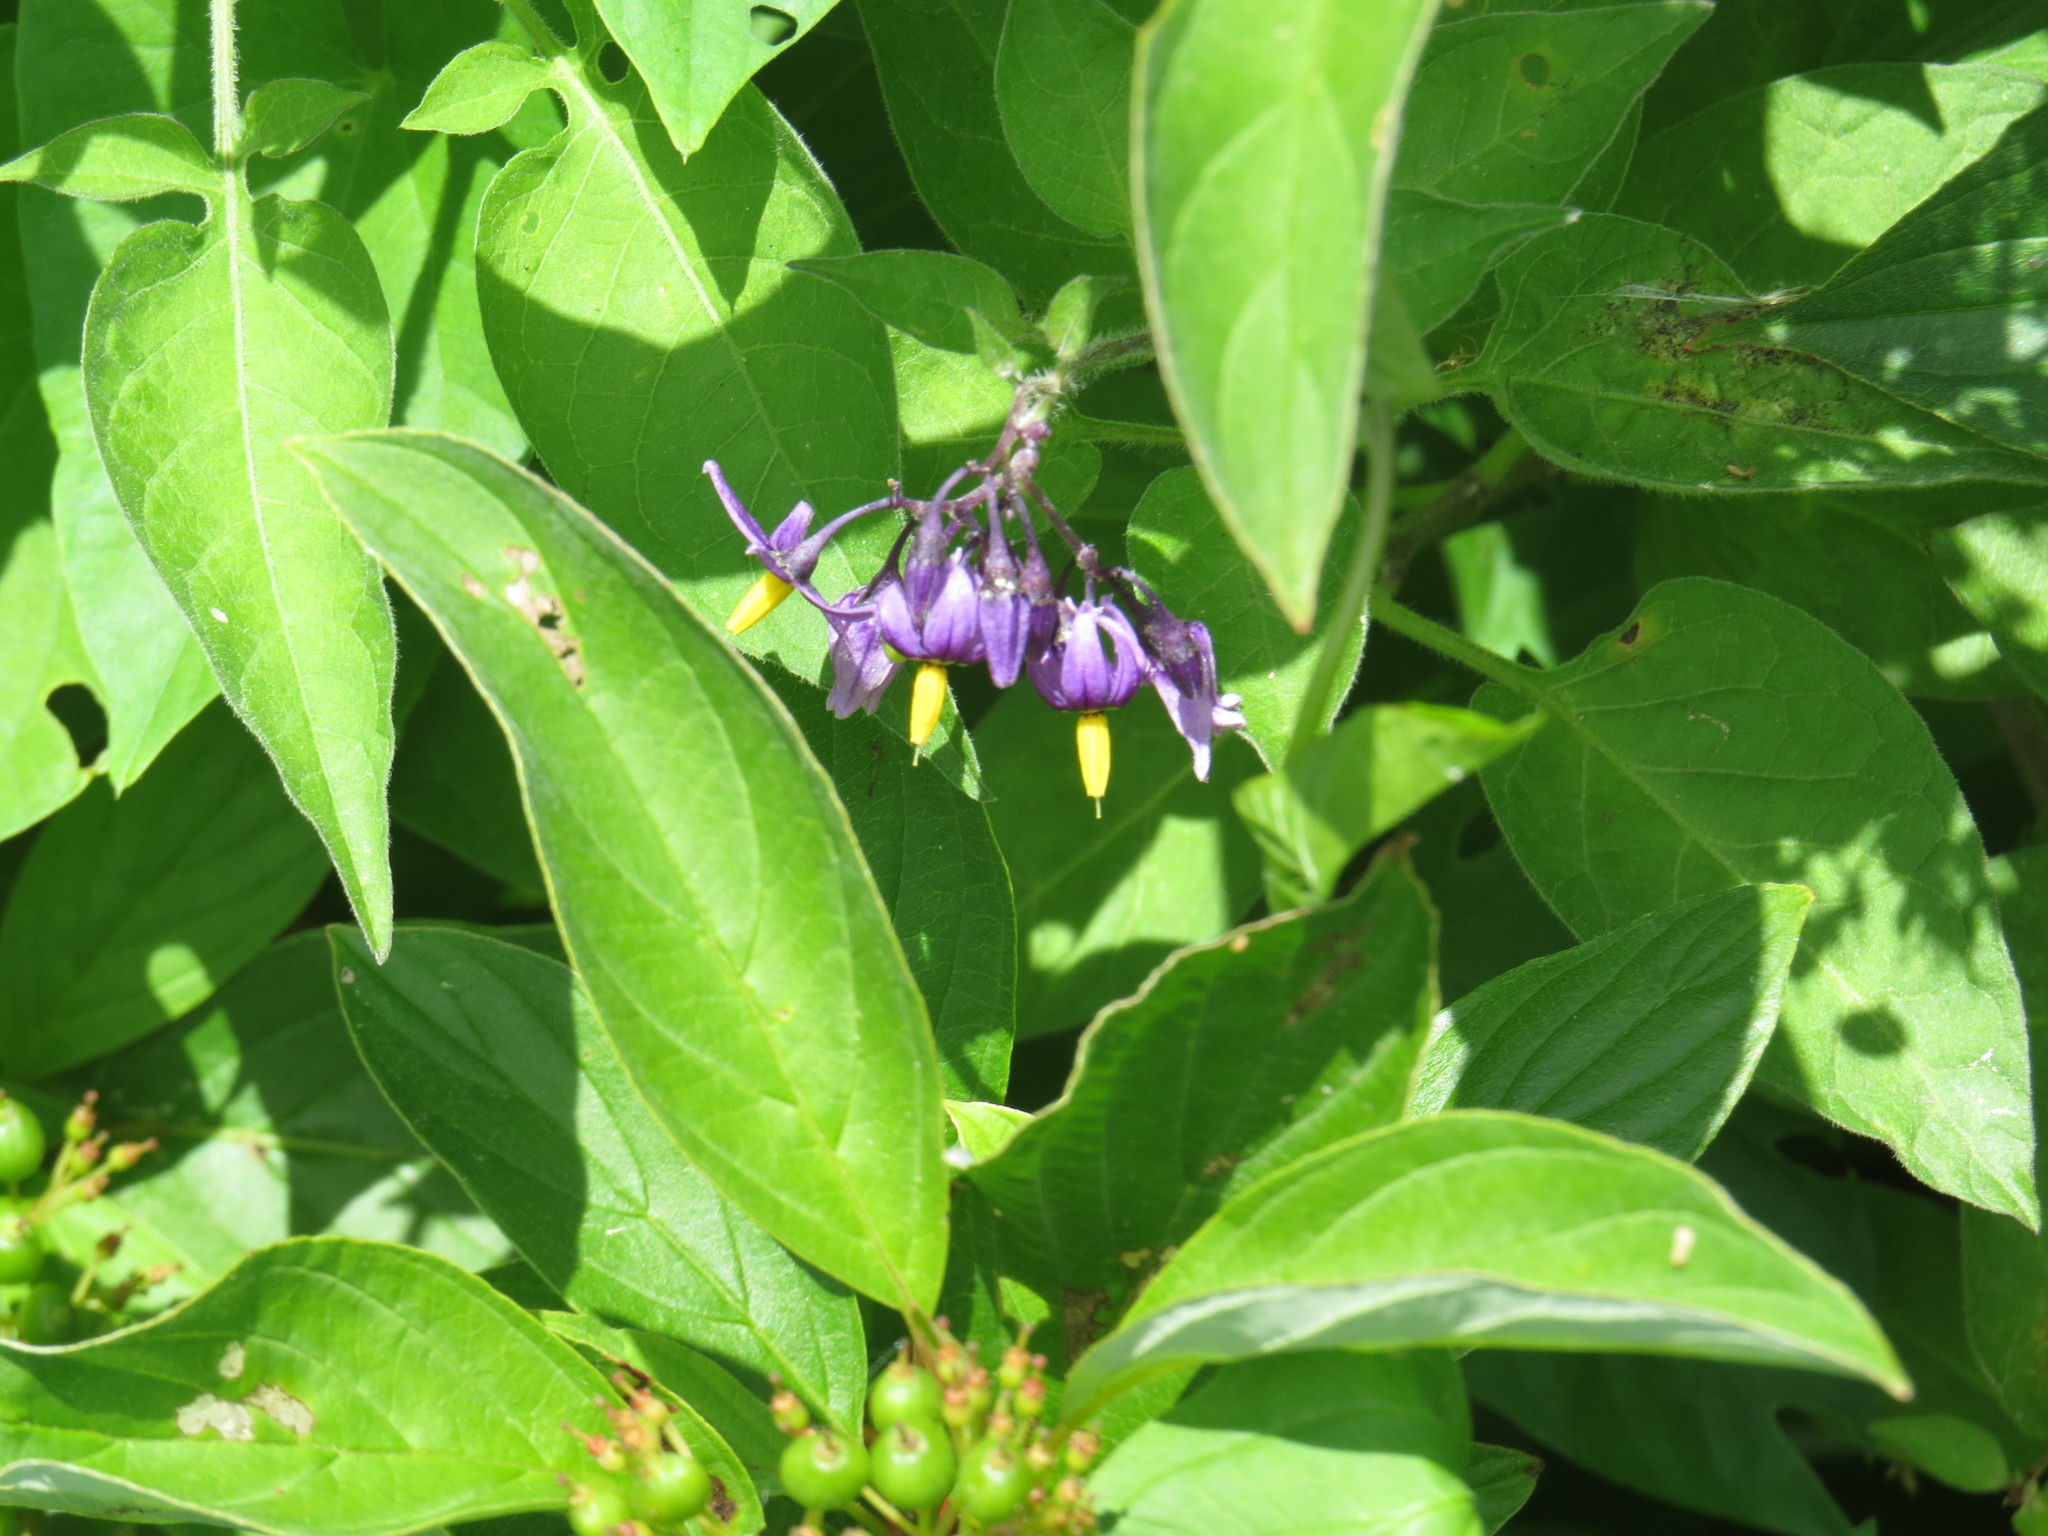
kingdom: Plantae
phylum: Tracheophyta
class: Magnoliopsida
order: Solanales
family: Solanaceae
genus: Solanum
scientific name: Solanum dulcamara
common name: Climbing nightshade
